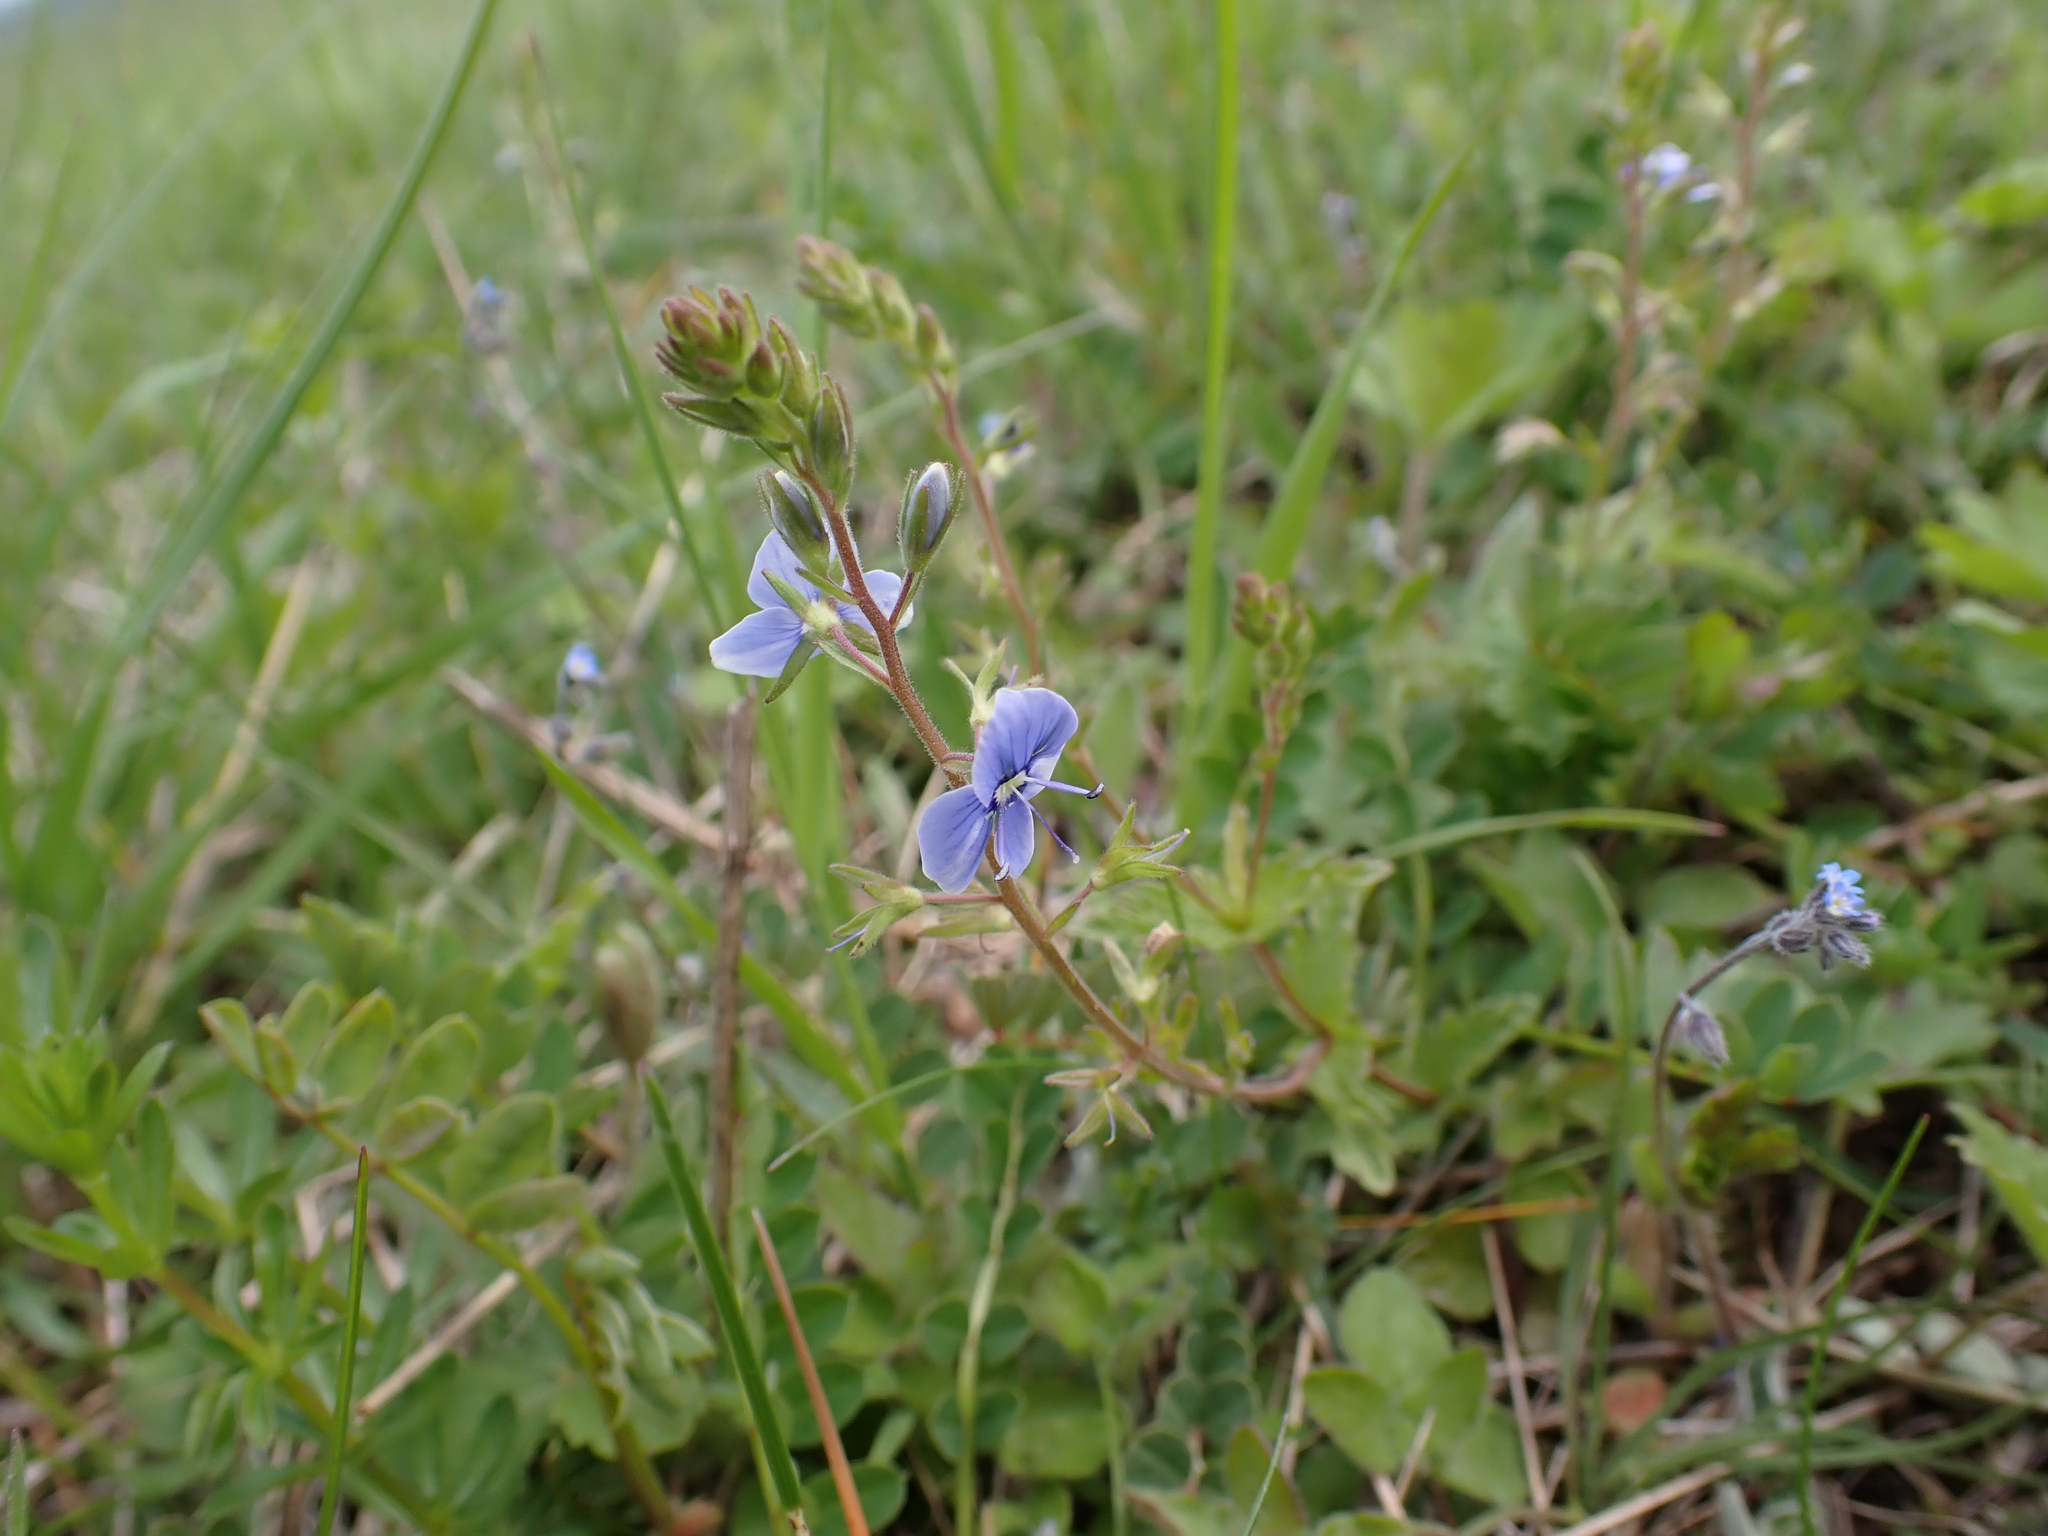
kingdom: Plantae
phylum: Tracheophyta
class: Magnoliopsida
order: Lamiales
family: Plantaginaceae
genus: Veronica
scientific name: Veronica chamaedrys
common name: Germander speedwell
